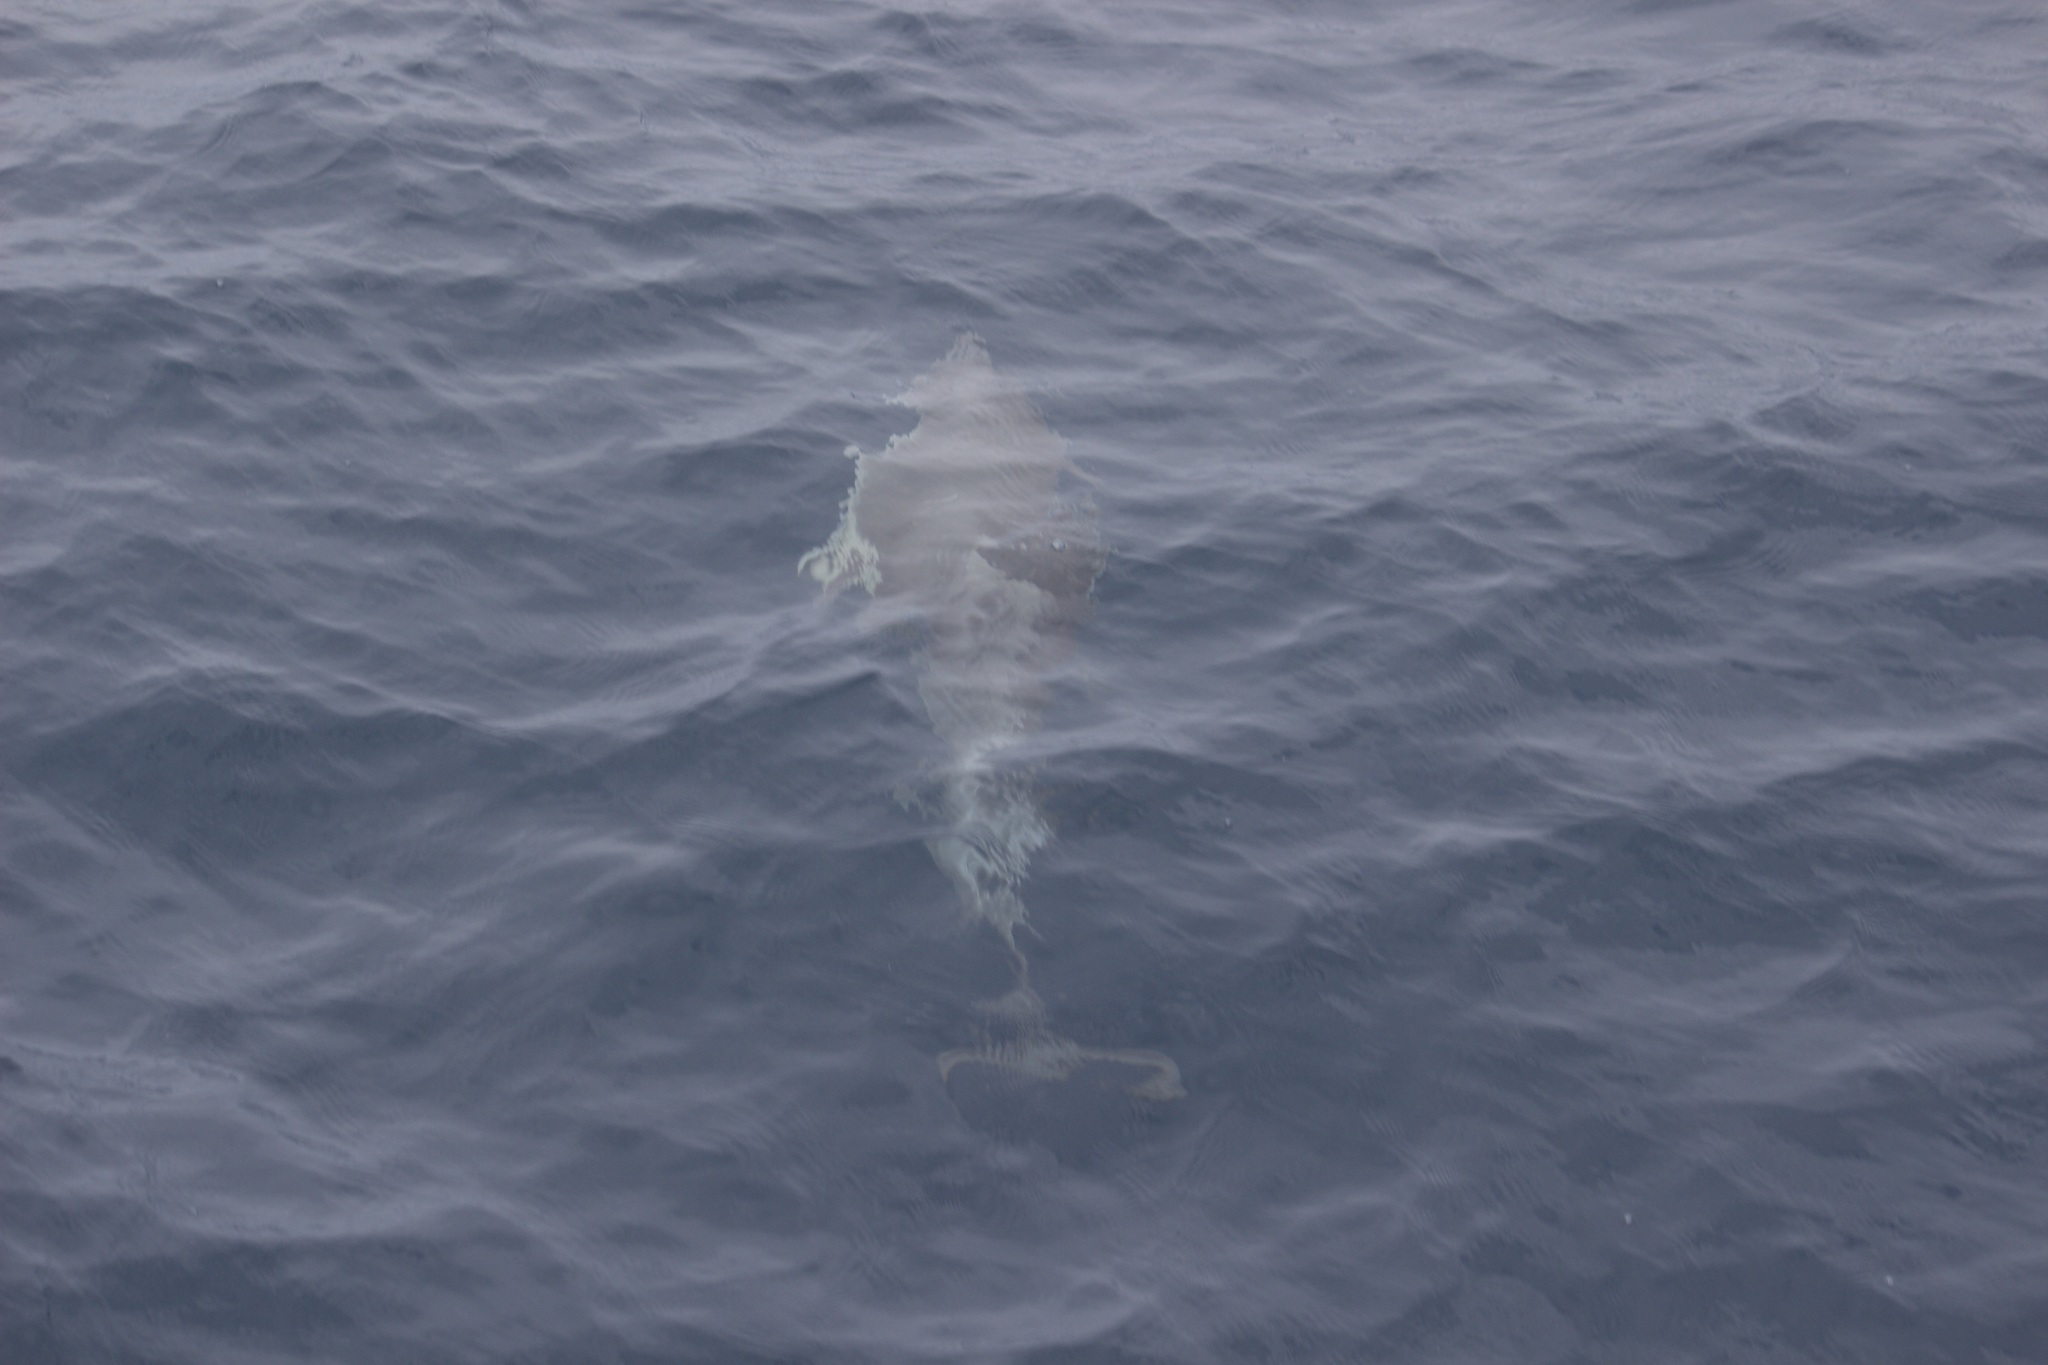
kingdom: Animalia
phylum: Chordata
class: Mammalia
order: Cetacea
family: Delphinidae
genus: Delphinus
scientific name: Delphinus delphis
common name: Common dolphin
